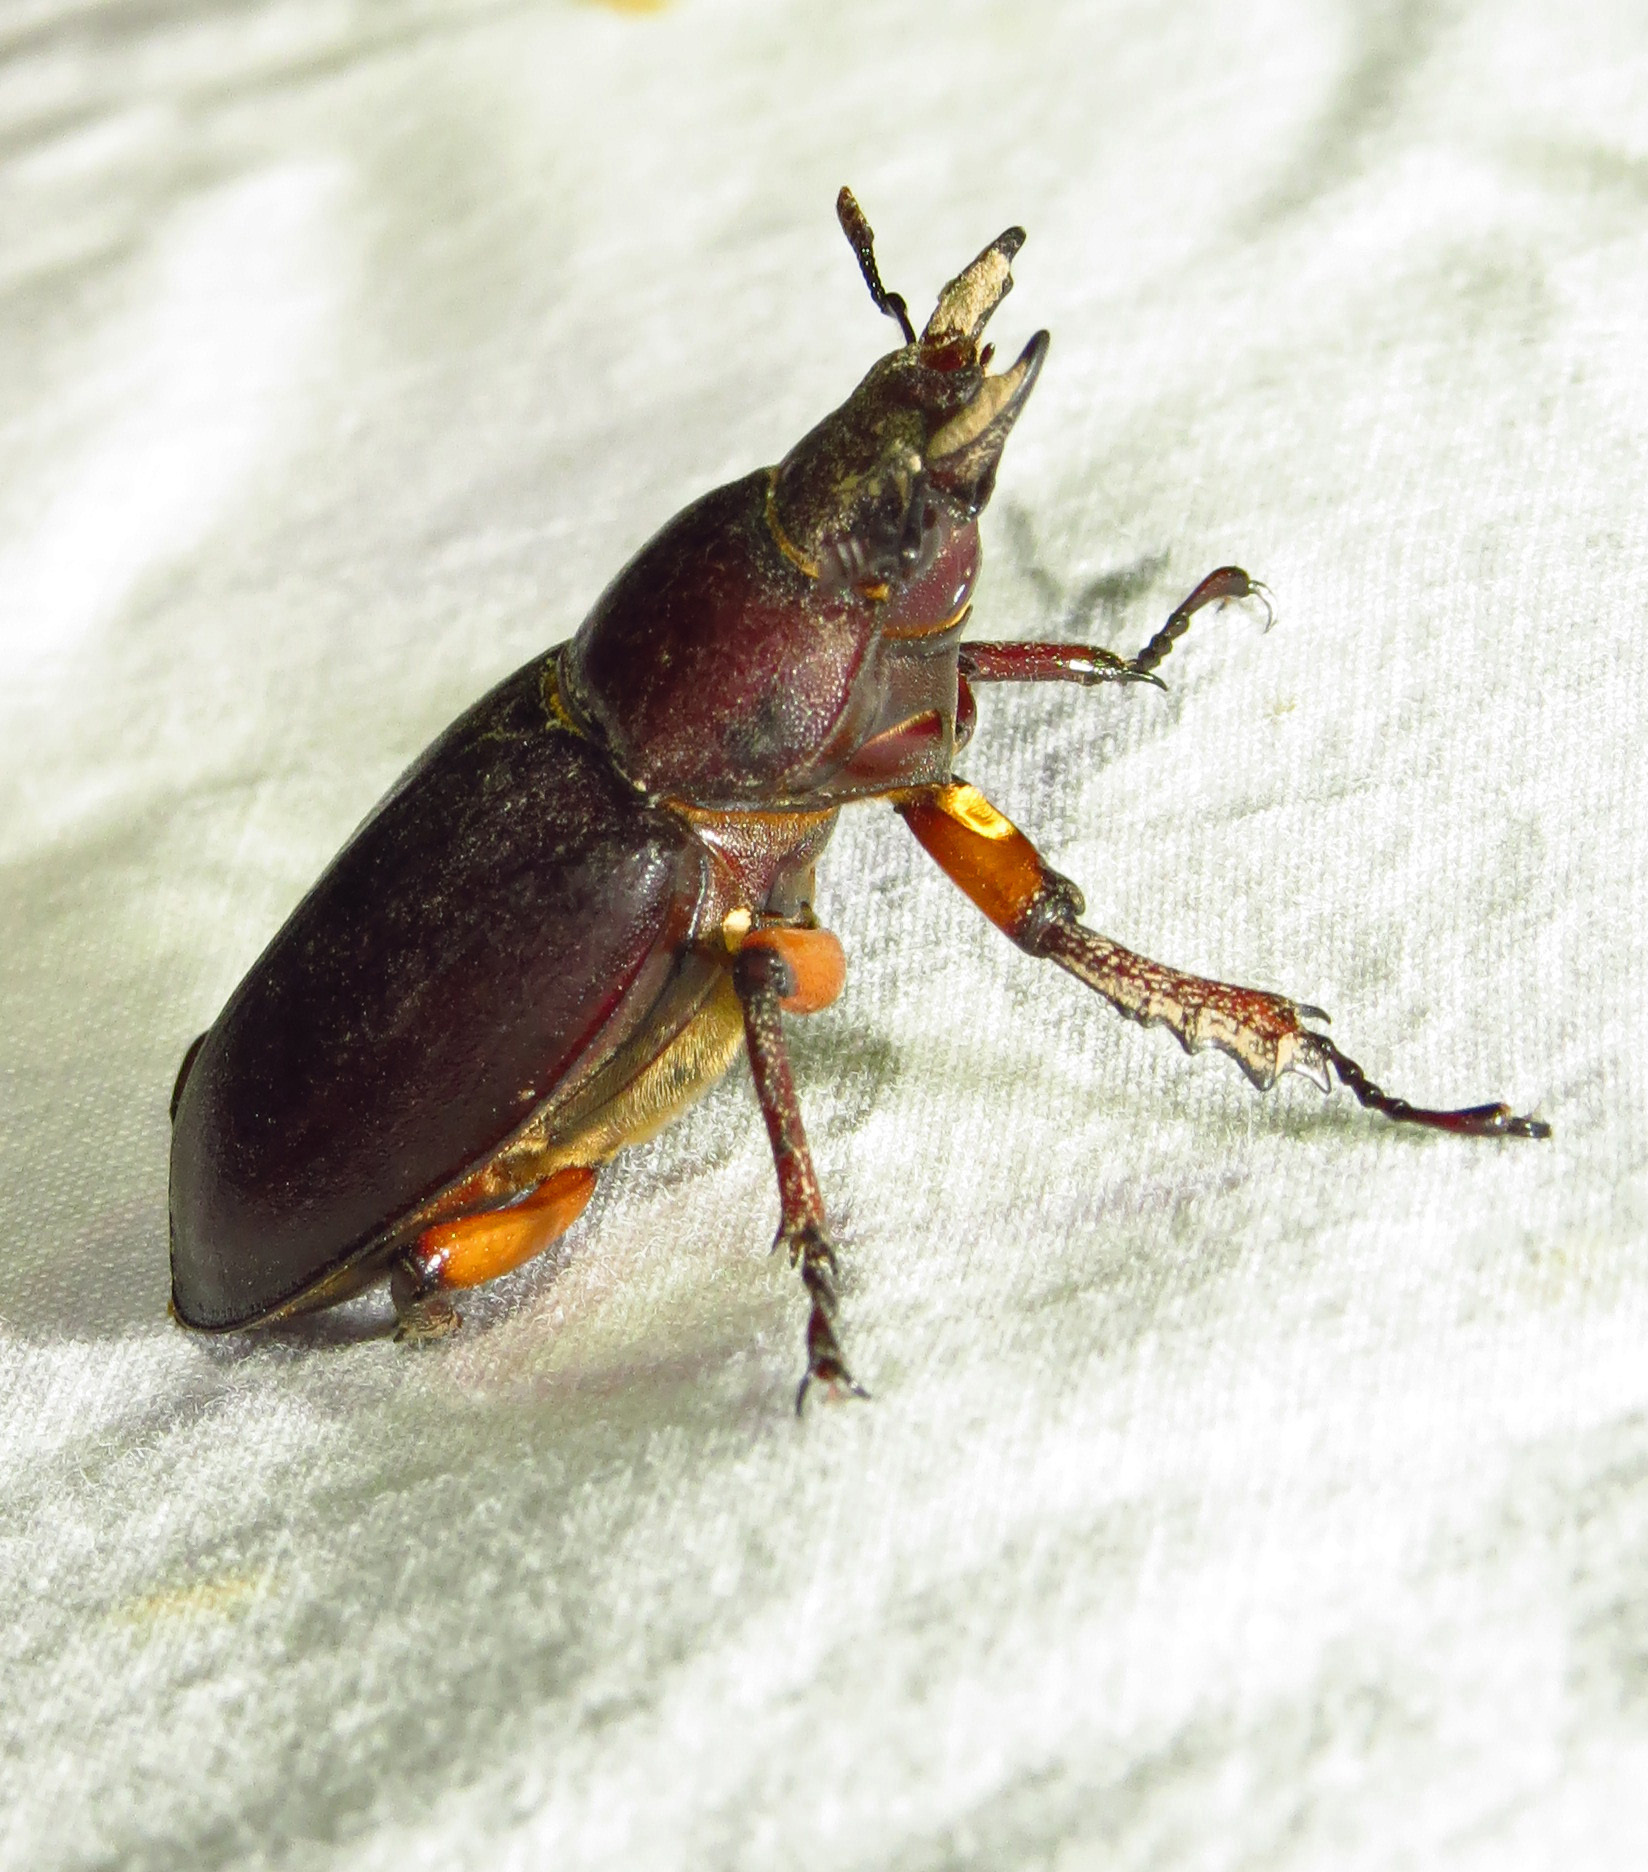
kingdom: Animalia
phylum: Arthropoda
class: Insecta
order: Coleoptera
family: Lucanidae
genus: Lucanus
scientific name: Lucanus capreolus
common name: Stag beetle
